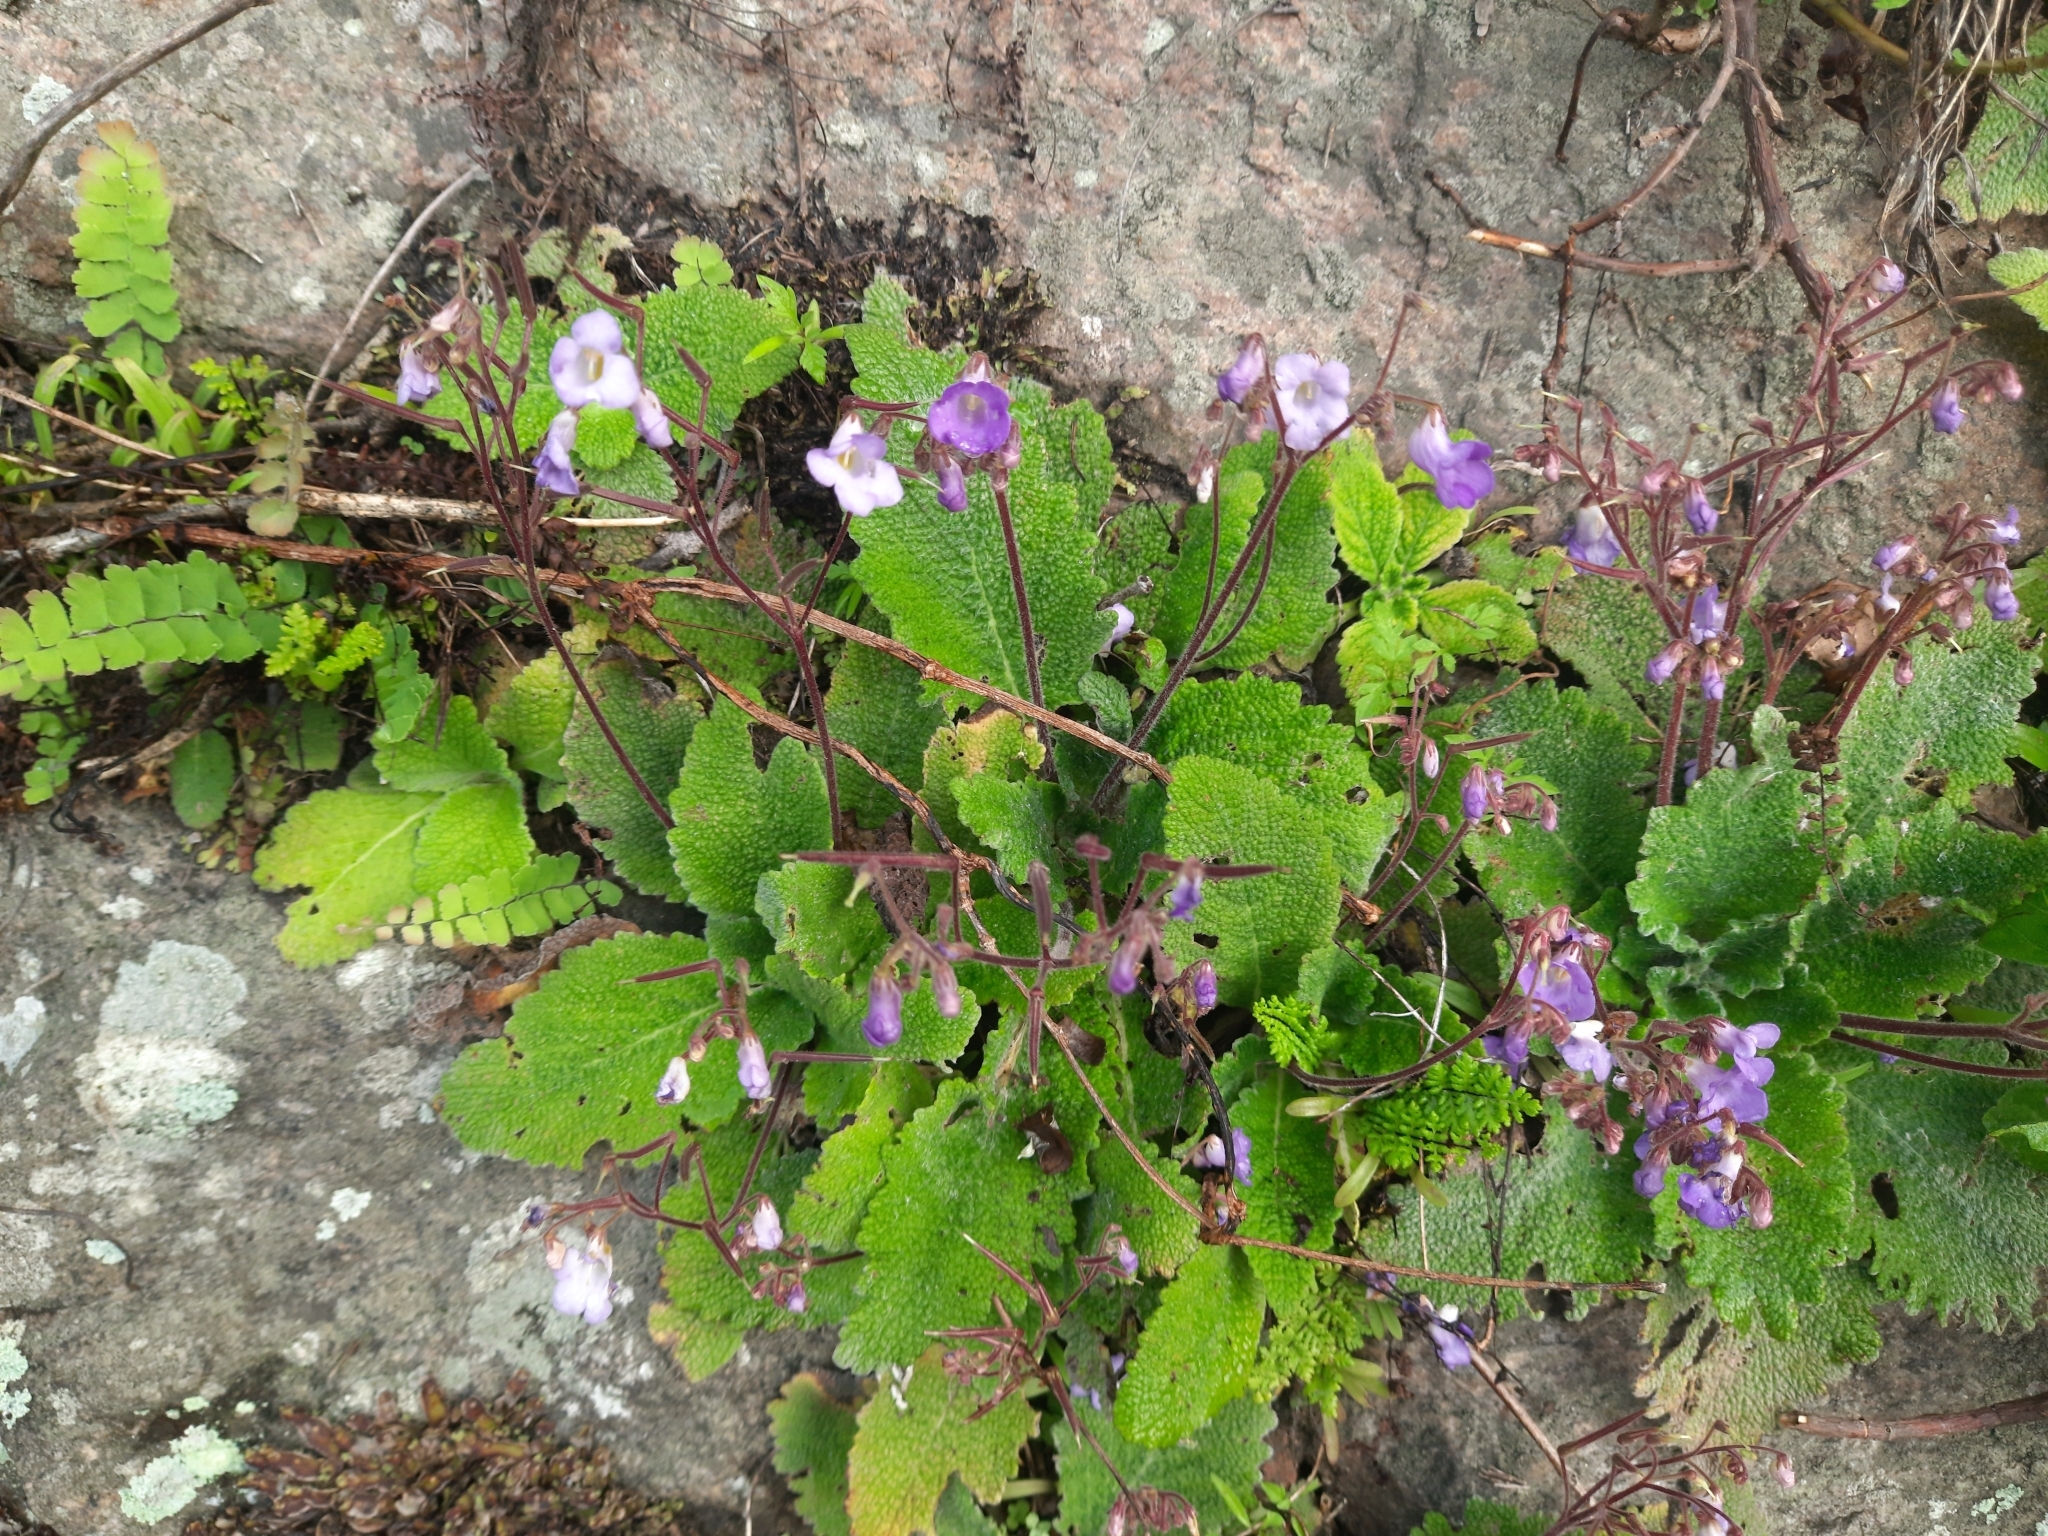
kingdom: Plantae
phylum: Tracheophyta
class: Magnoliopsida
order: Lamiales
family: Gesneriaceae
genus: Henckelia
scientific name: Henckelia incana
